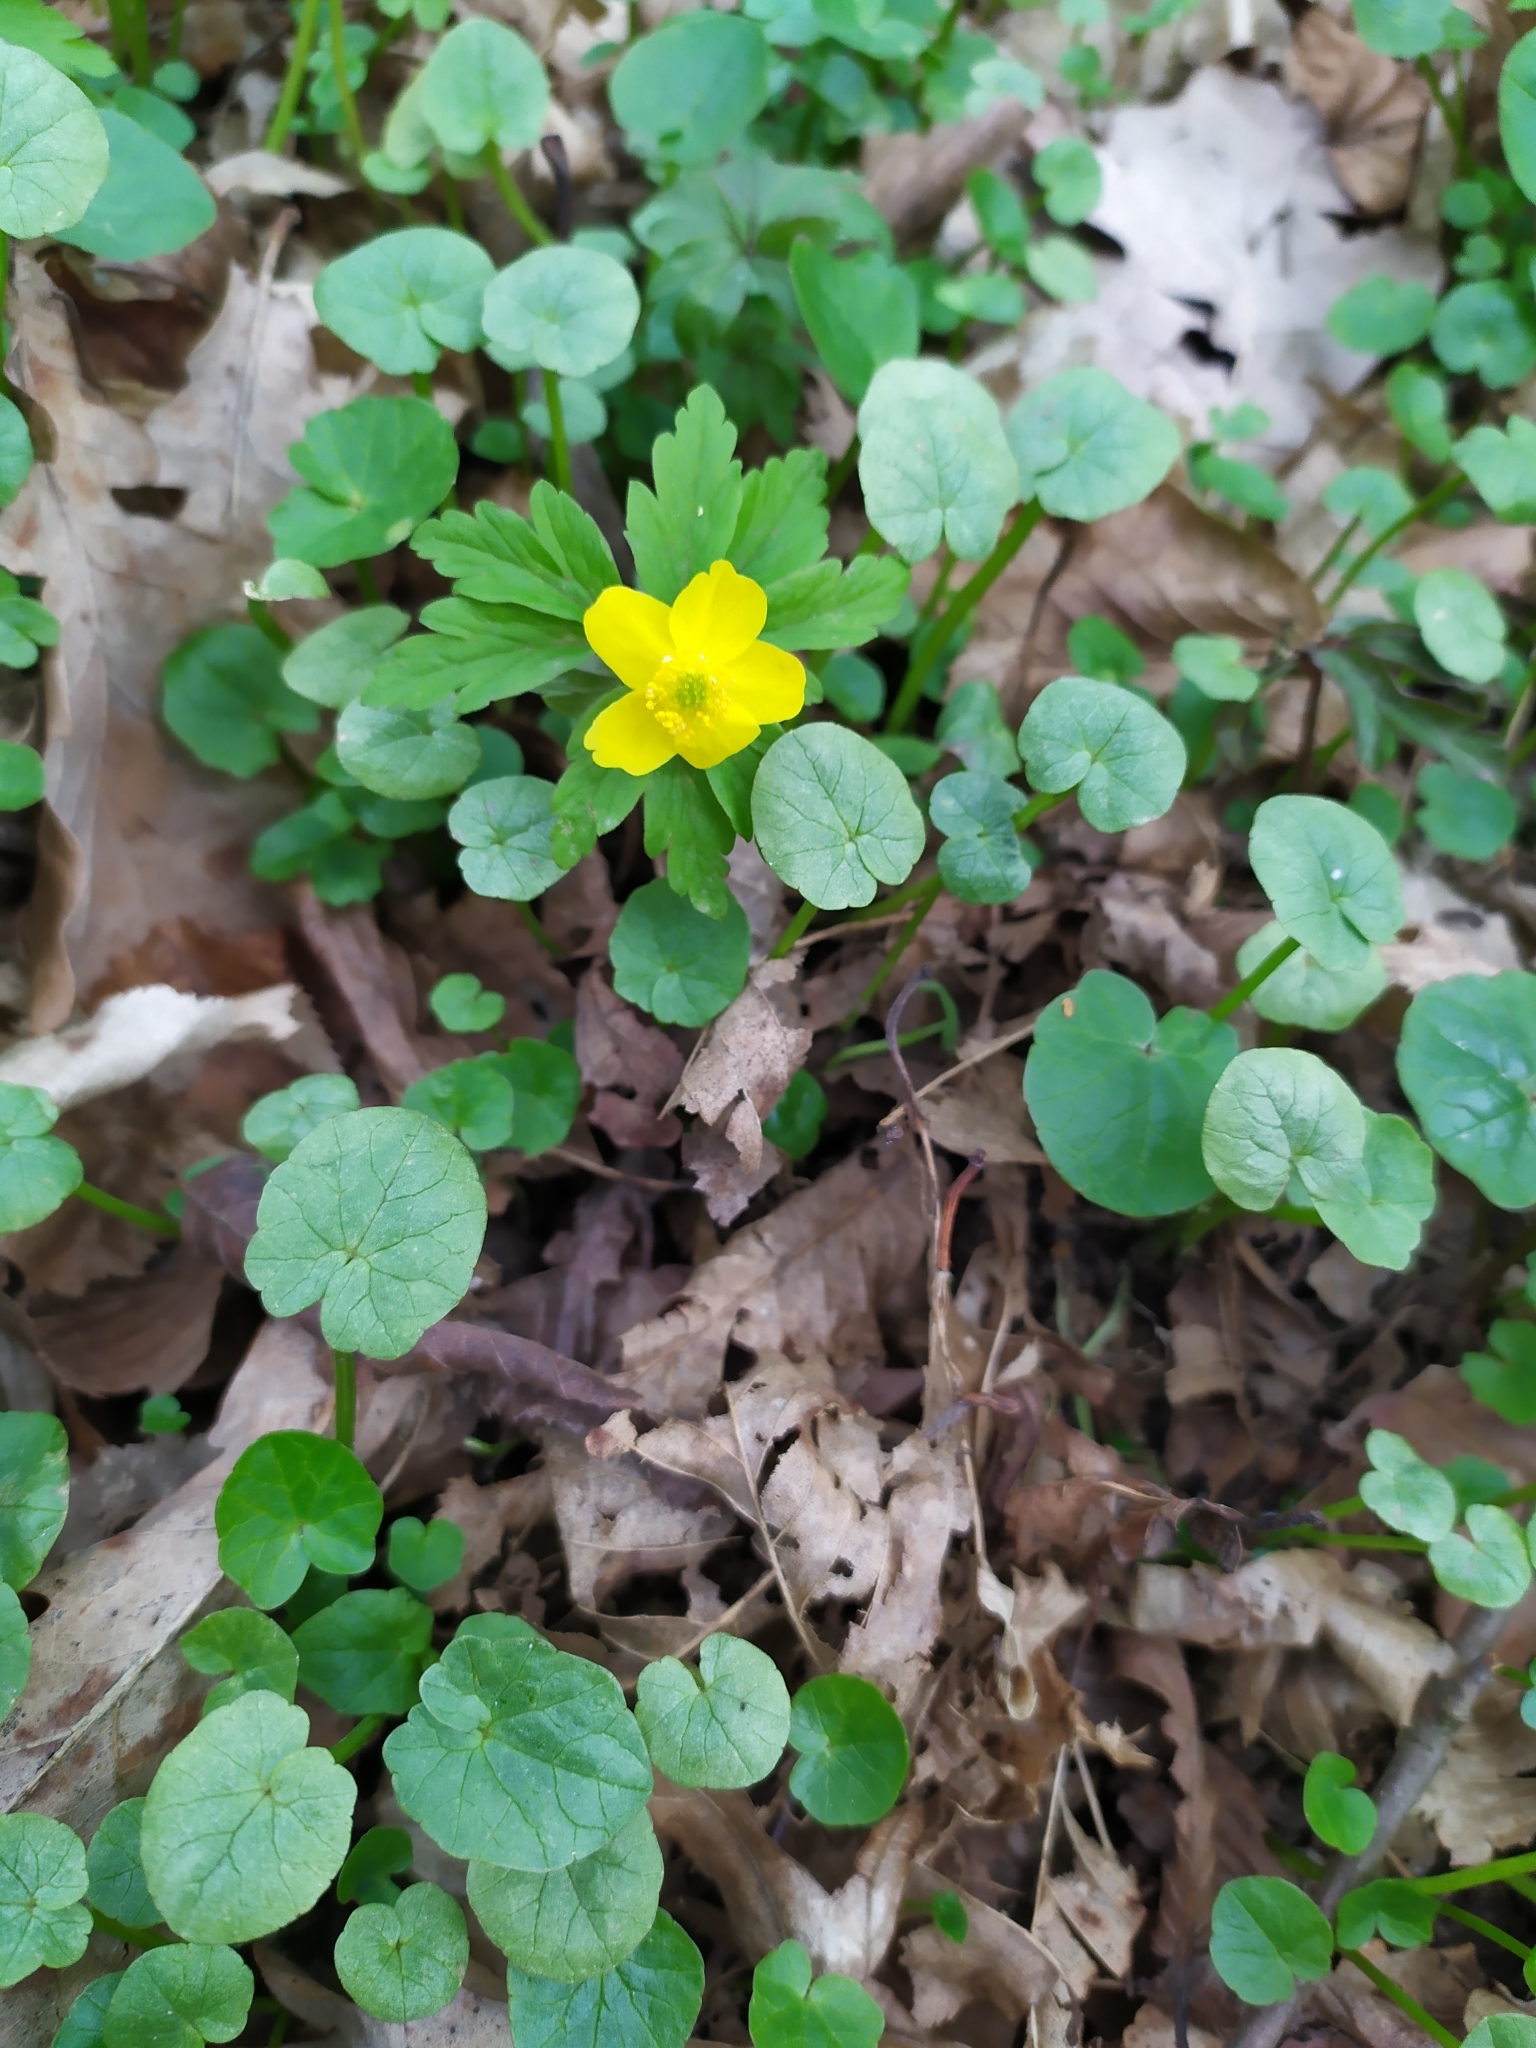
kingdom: Plantae
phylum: Tracheophyta
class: Magnoliopsida
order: Ranunculales
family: Ranunculaceae
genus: Anemone
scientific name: Anemone ranunculoides
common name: Yellow anemone
